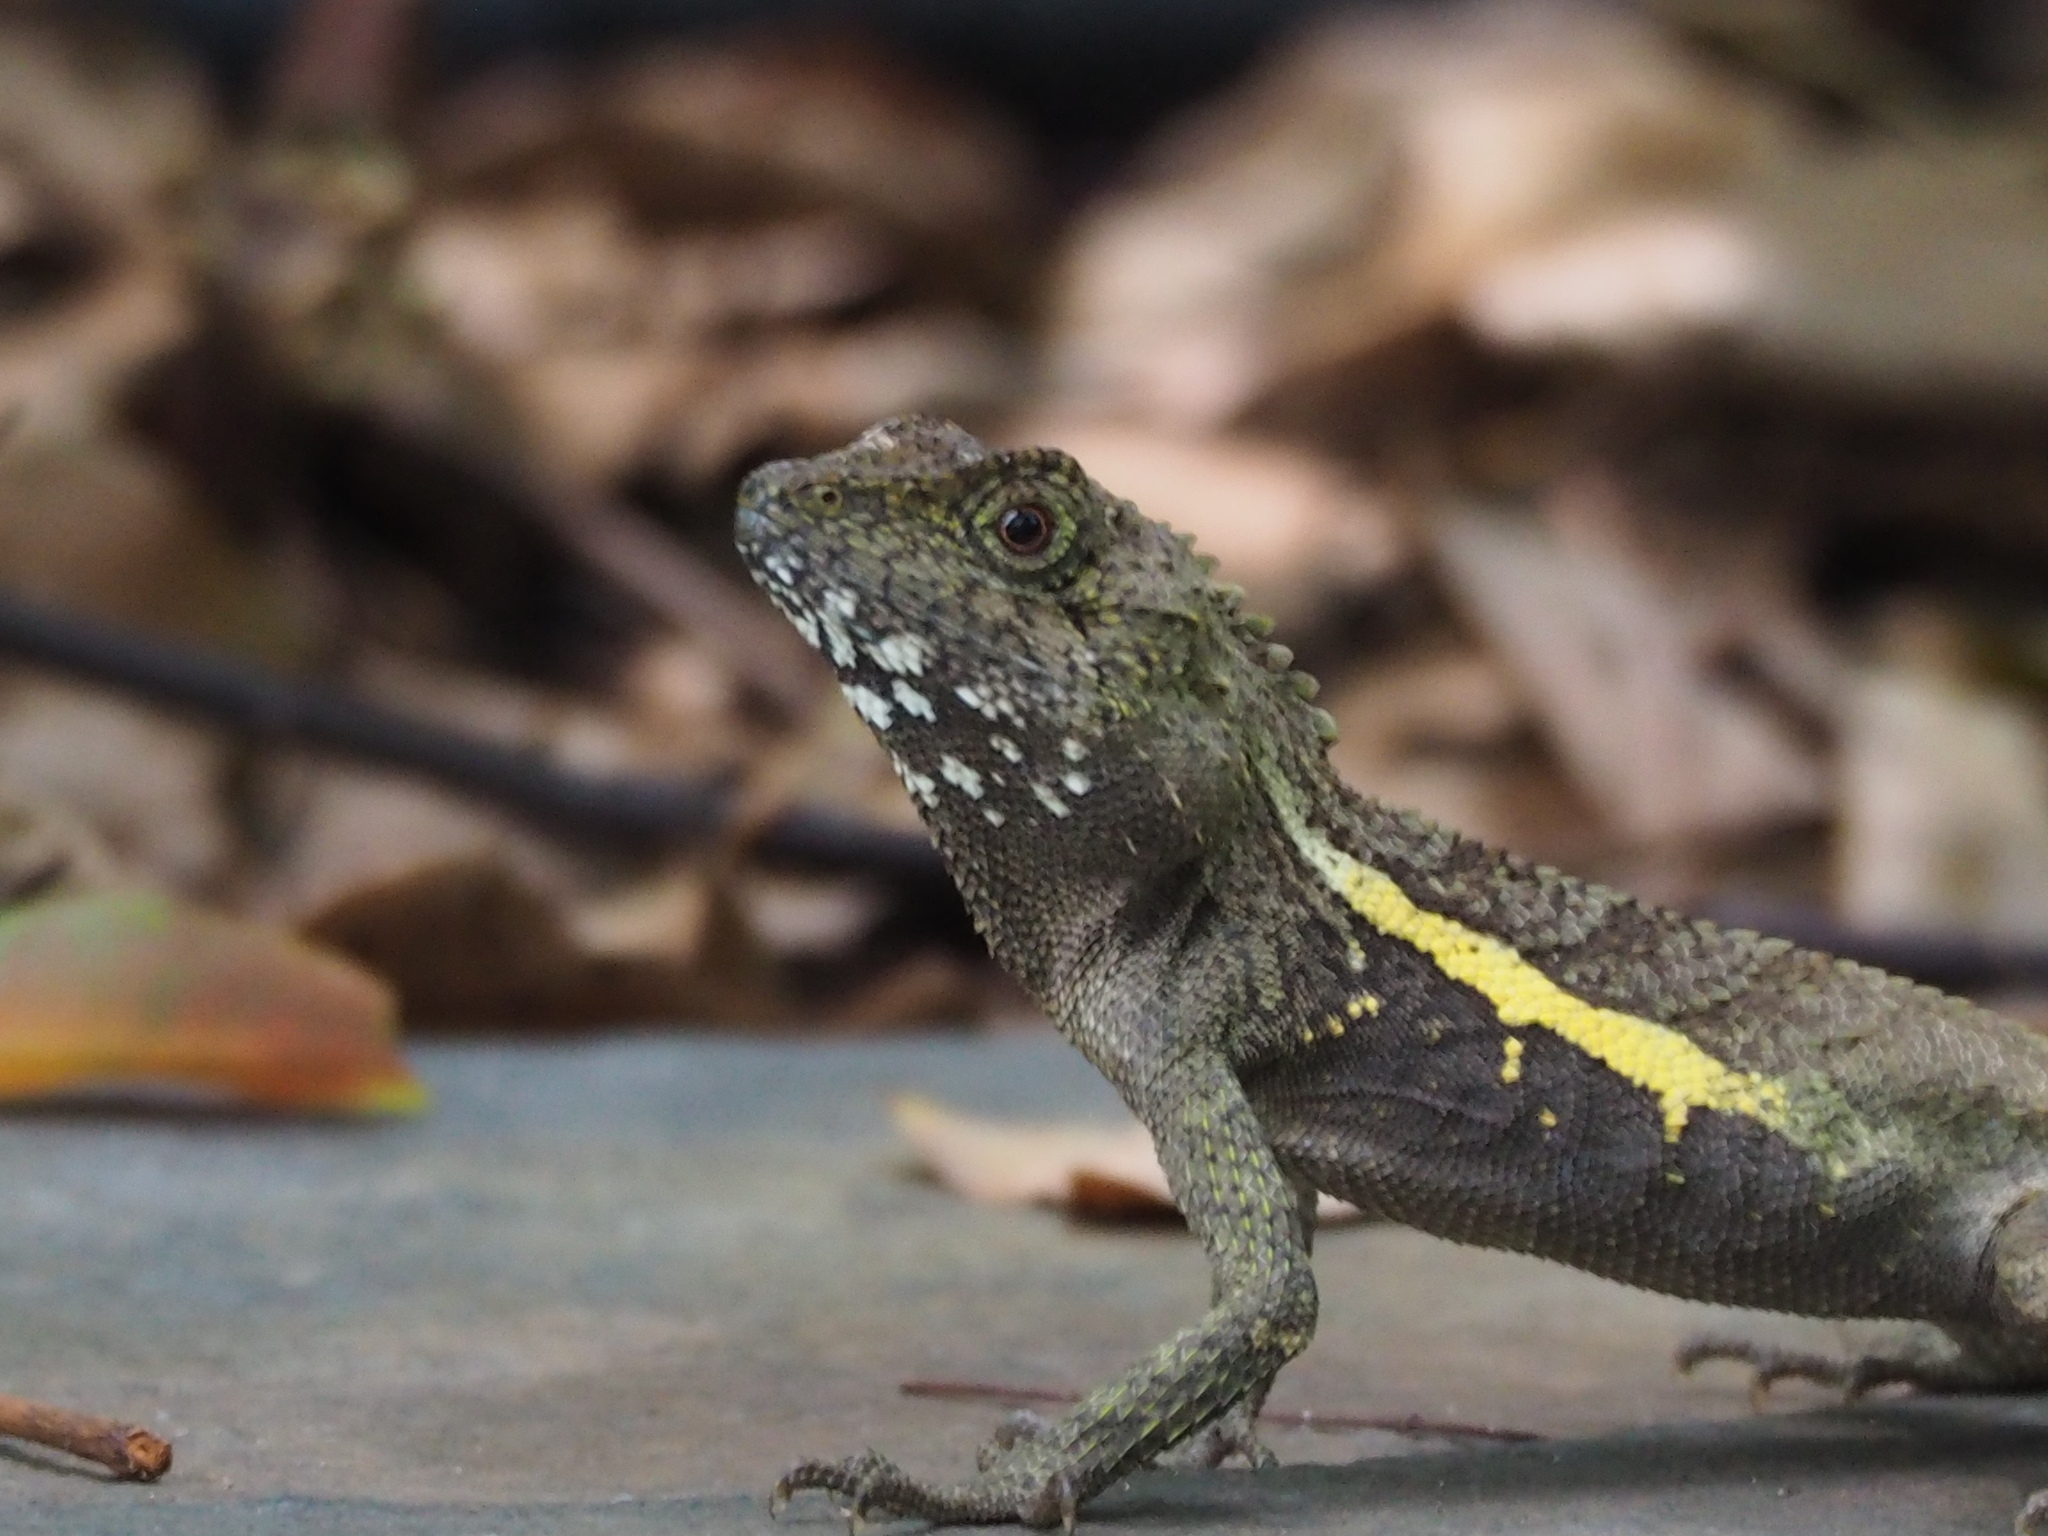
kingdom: Animalia
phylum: Chordata
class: Squamata
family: Agamidae
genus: Diploderma
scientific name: Diploderma swinhonis
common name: Taiwan japalure
